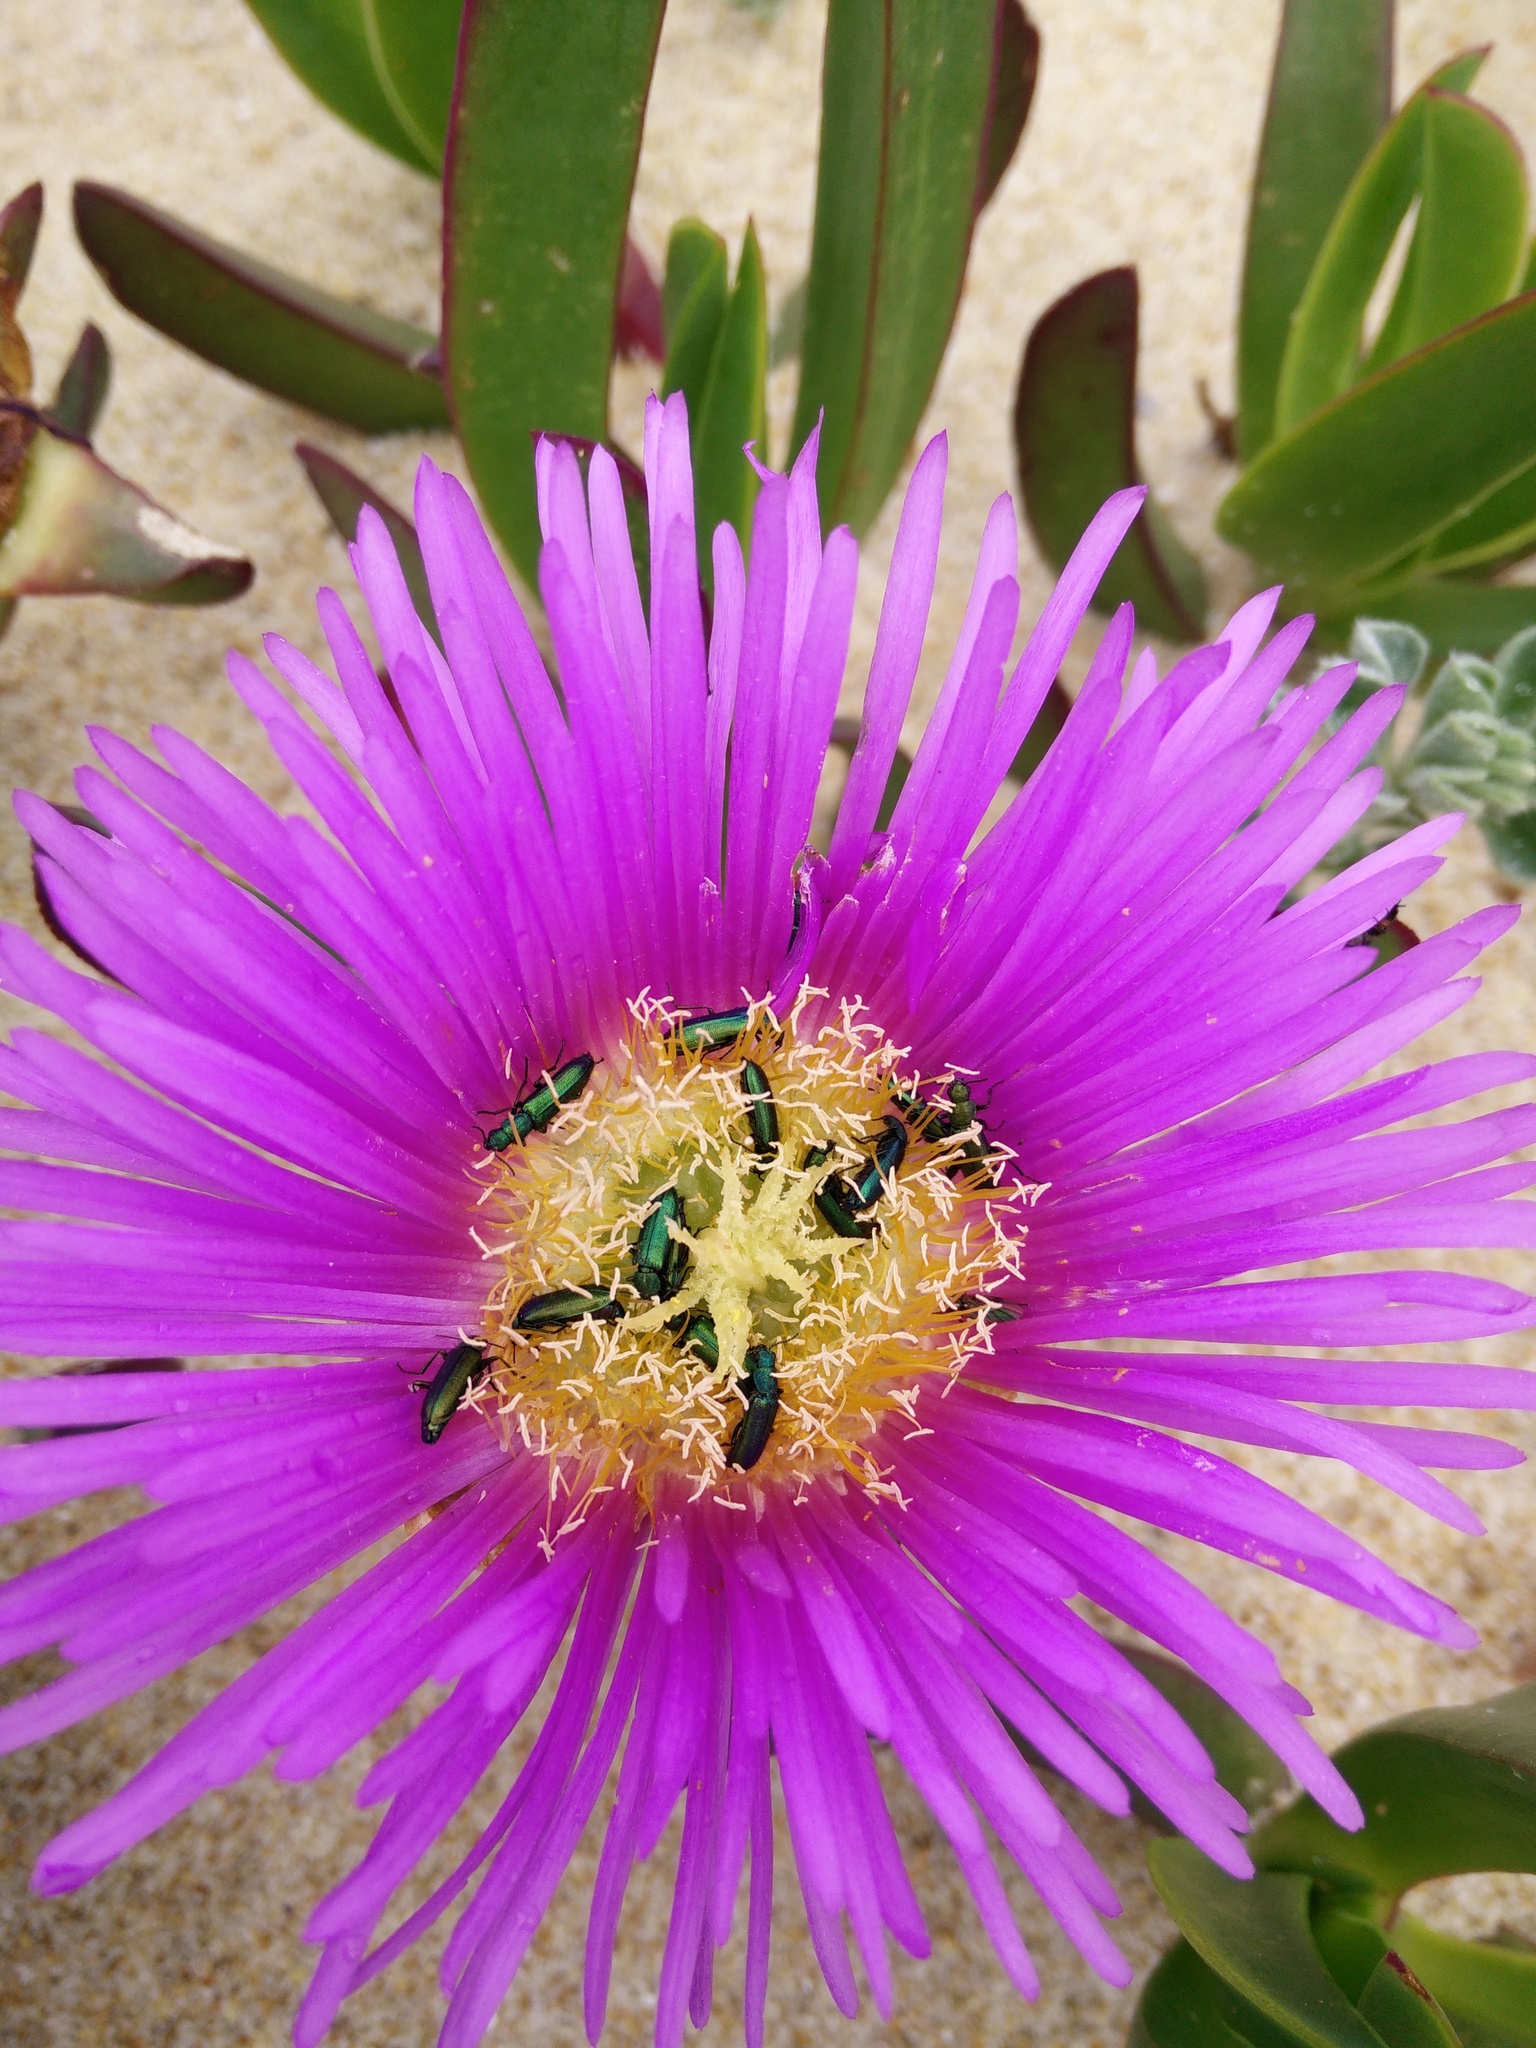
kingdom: Animalia
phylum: Arthropoda
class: Insecta
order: Coleoptera
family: Dasytidae
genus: Psilothrix
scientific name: Psilothrix viridicoerulea
